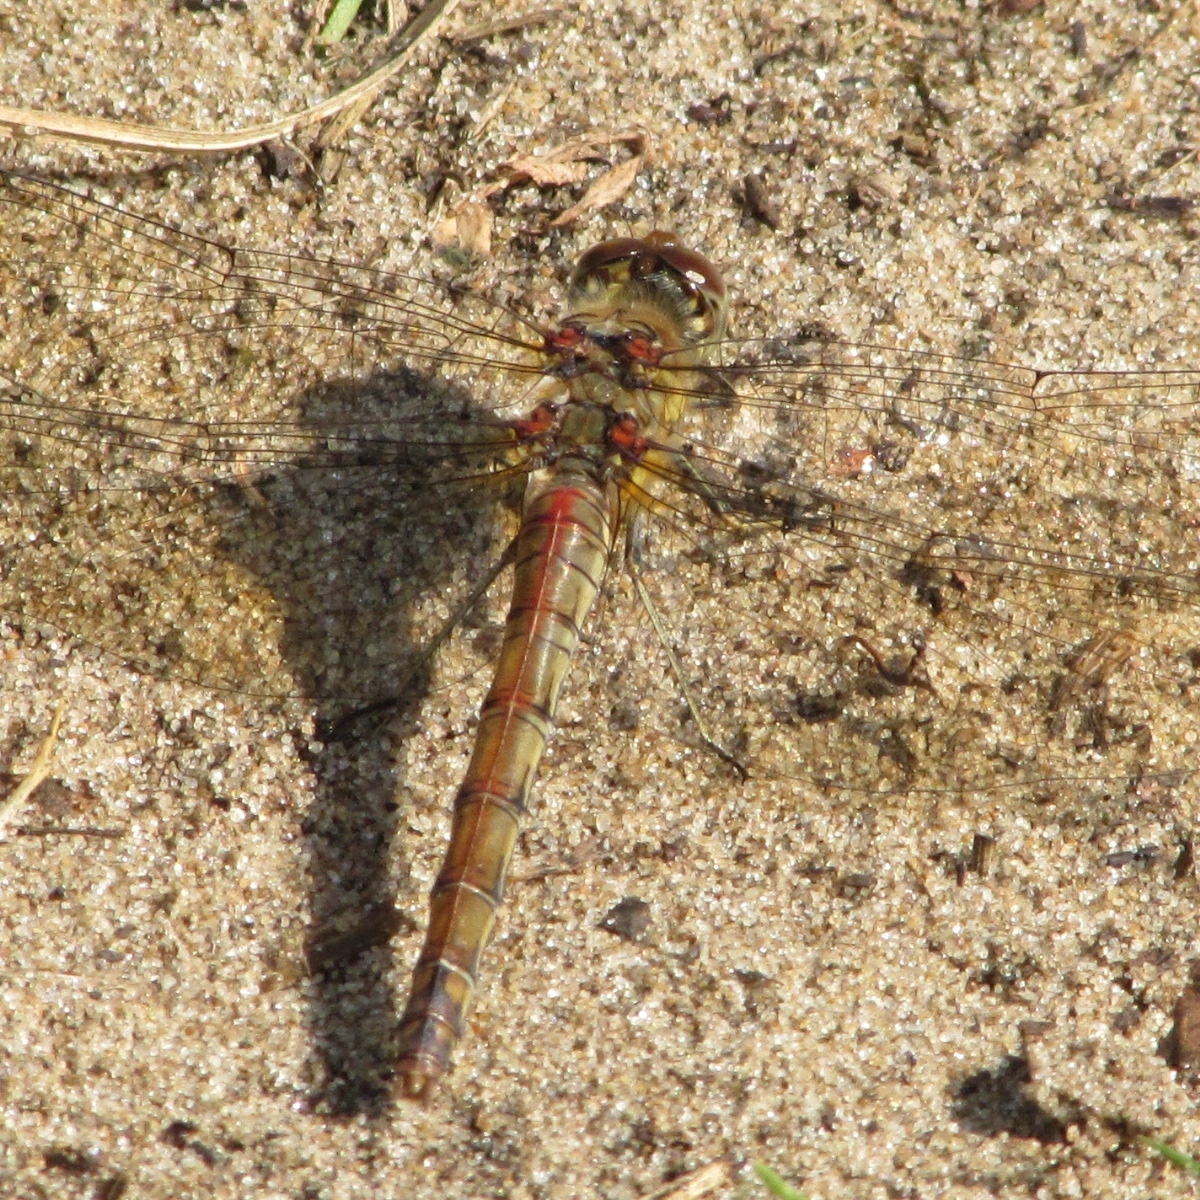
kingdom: Animalia
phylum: Arthropoda
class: Insecta
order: Odonata
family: Libellulidae
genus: Sympetrum
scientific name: Sympetrum striolatum
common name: Common darter
